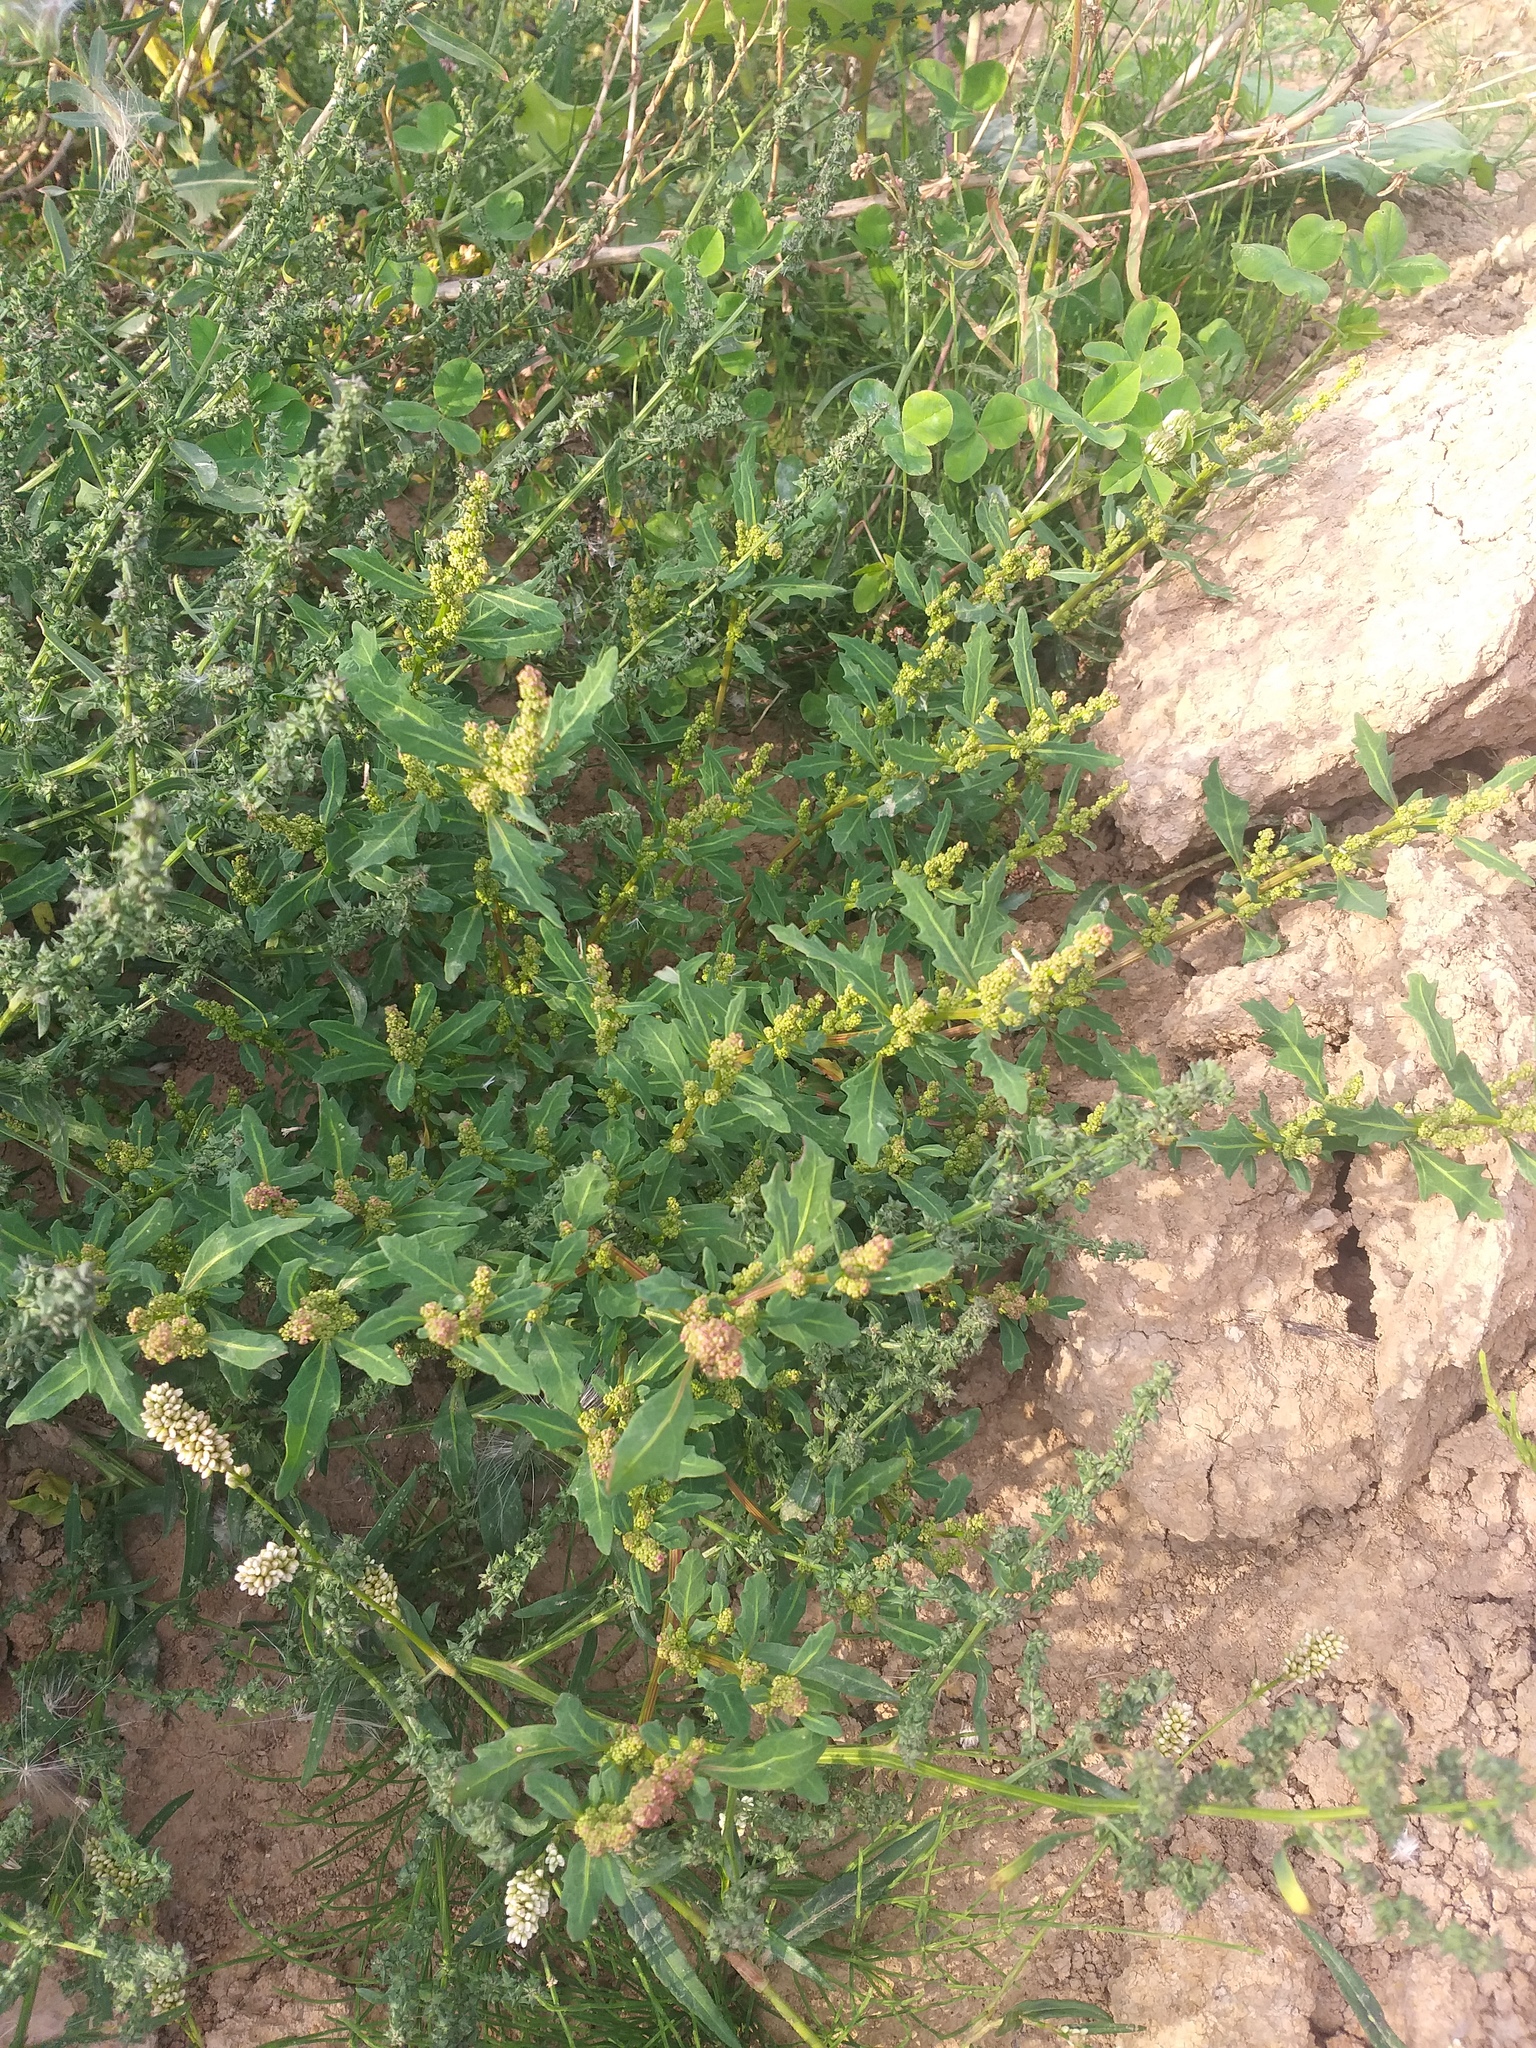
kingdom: Plantae
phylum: Tracheophyta
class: Magnoliopsida
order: Caryophyllales
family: Amaranthaceae
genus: Oxybasis
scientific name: Oxybasis glauca
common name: Glaucous goosefoot
